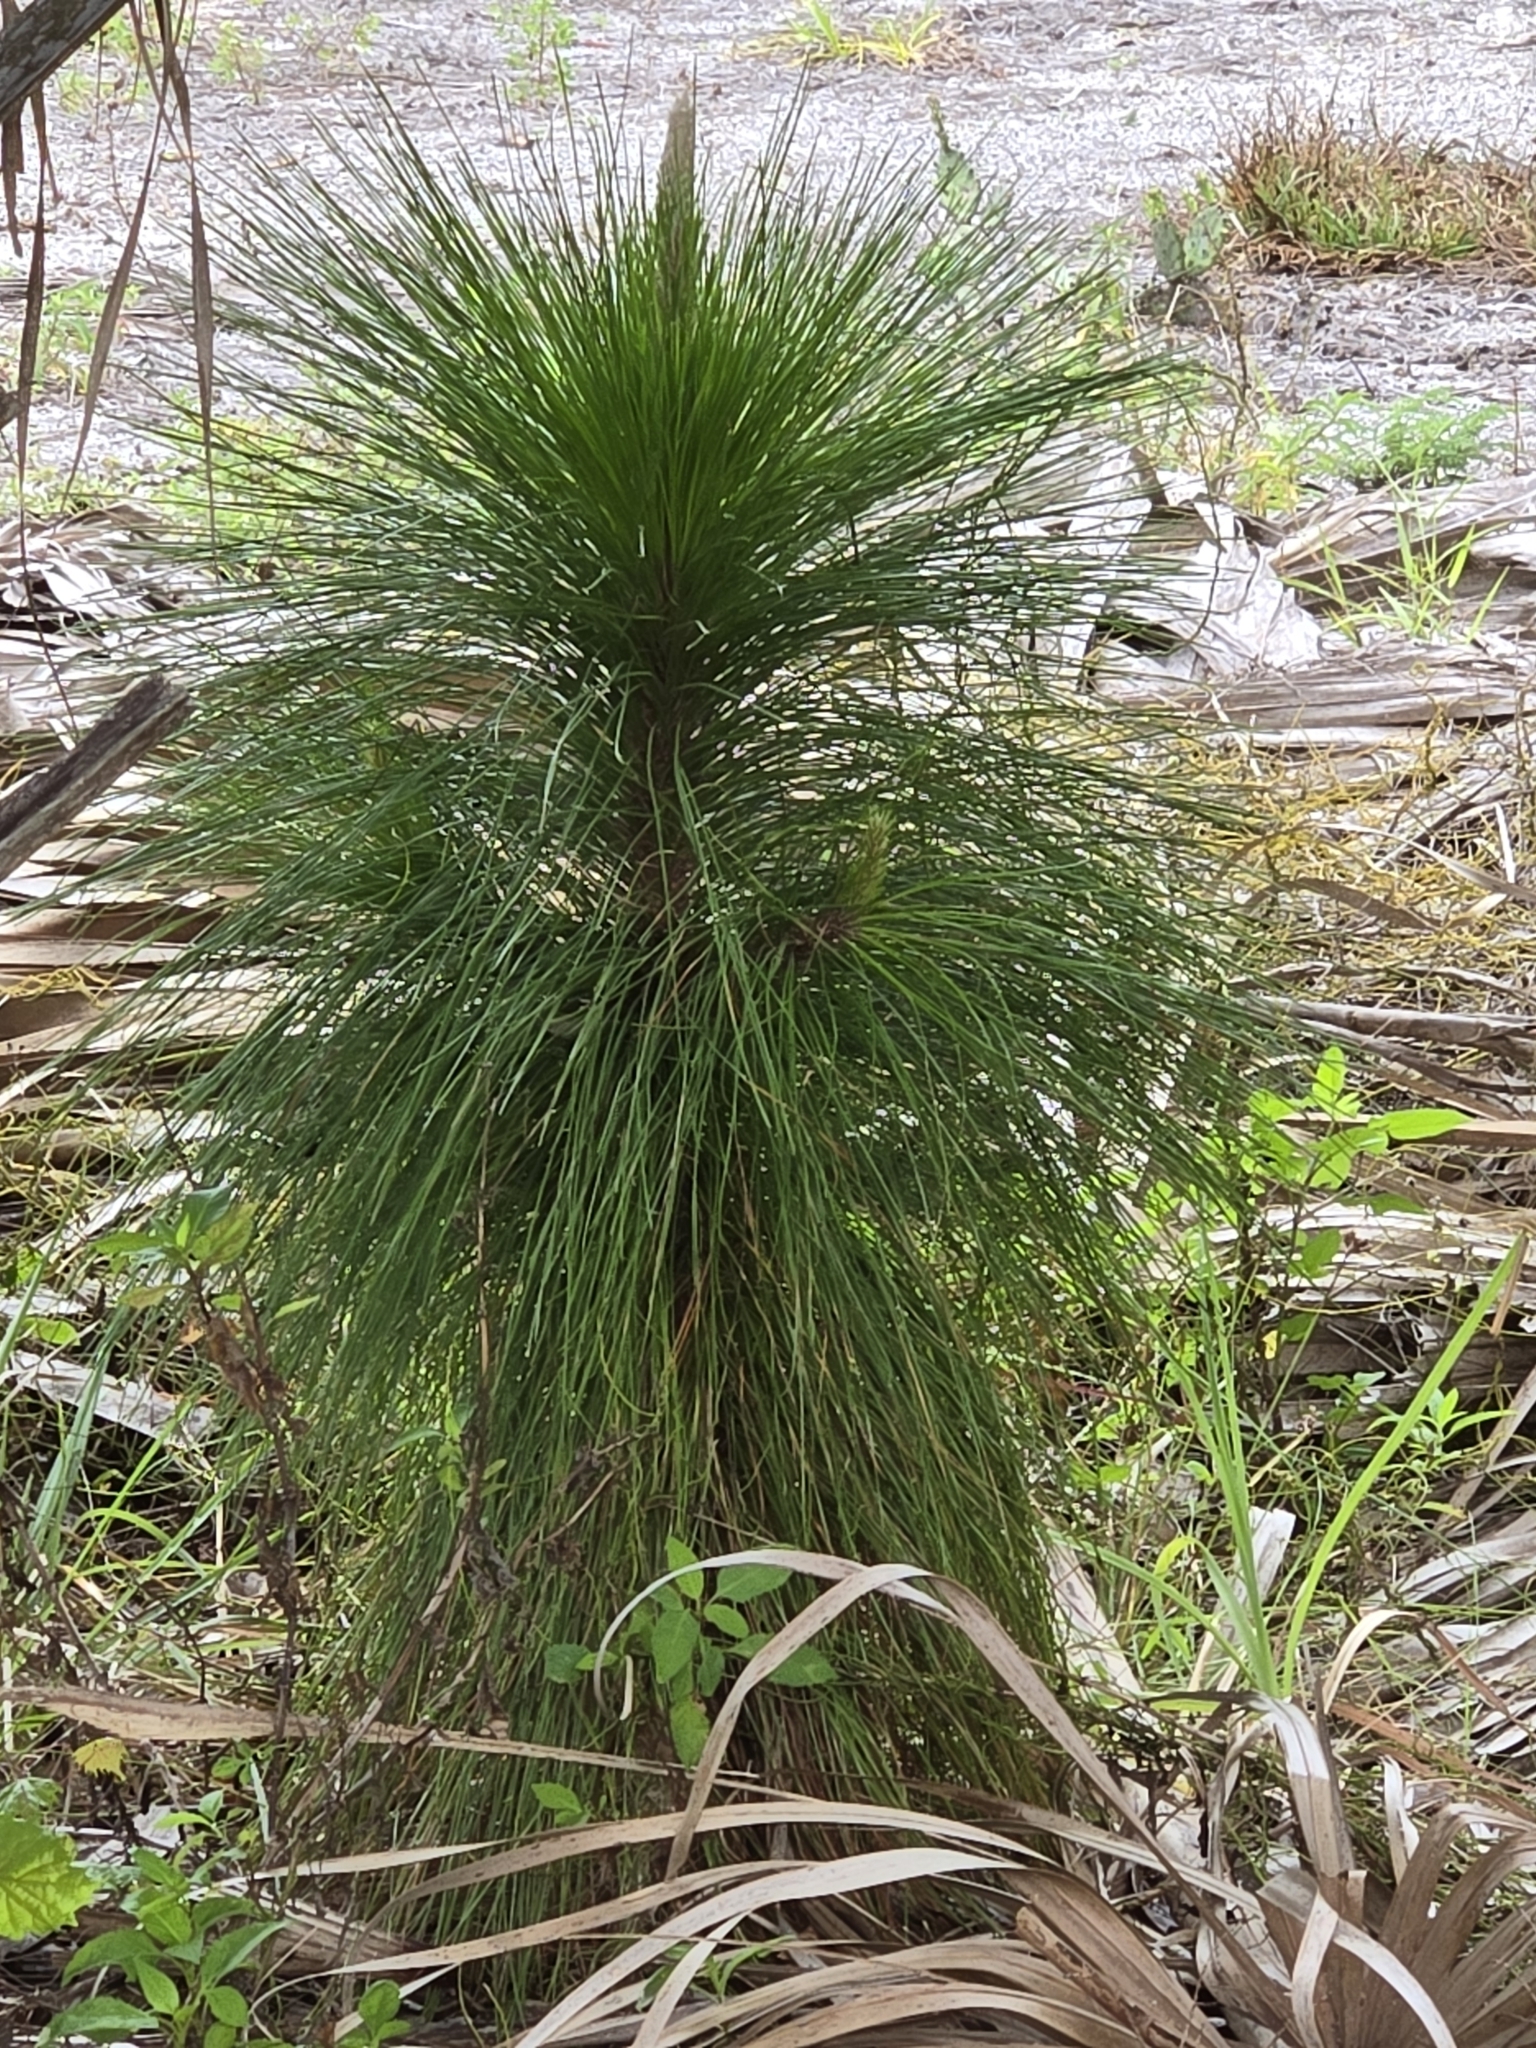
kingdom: Plantae
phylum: Tracheophyta
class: Pinopsida
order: Pinales
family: Pinaceae
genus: Pinus
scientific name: Pinus elliottii
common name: Slash pine
